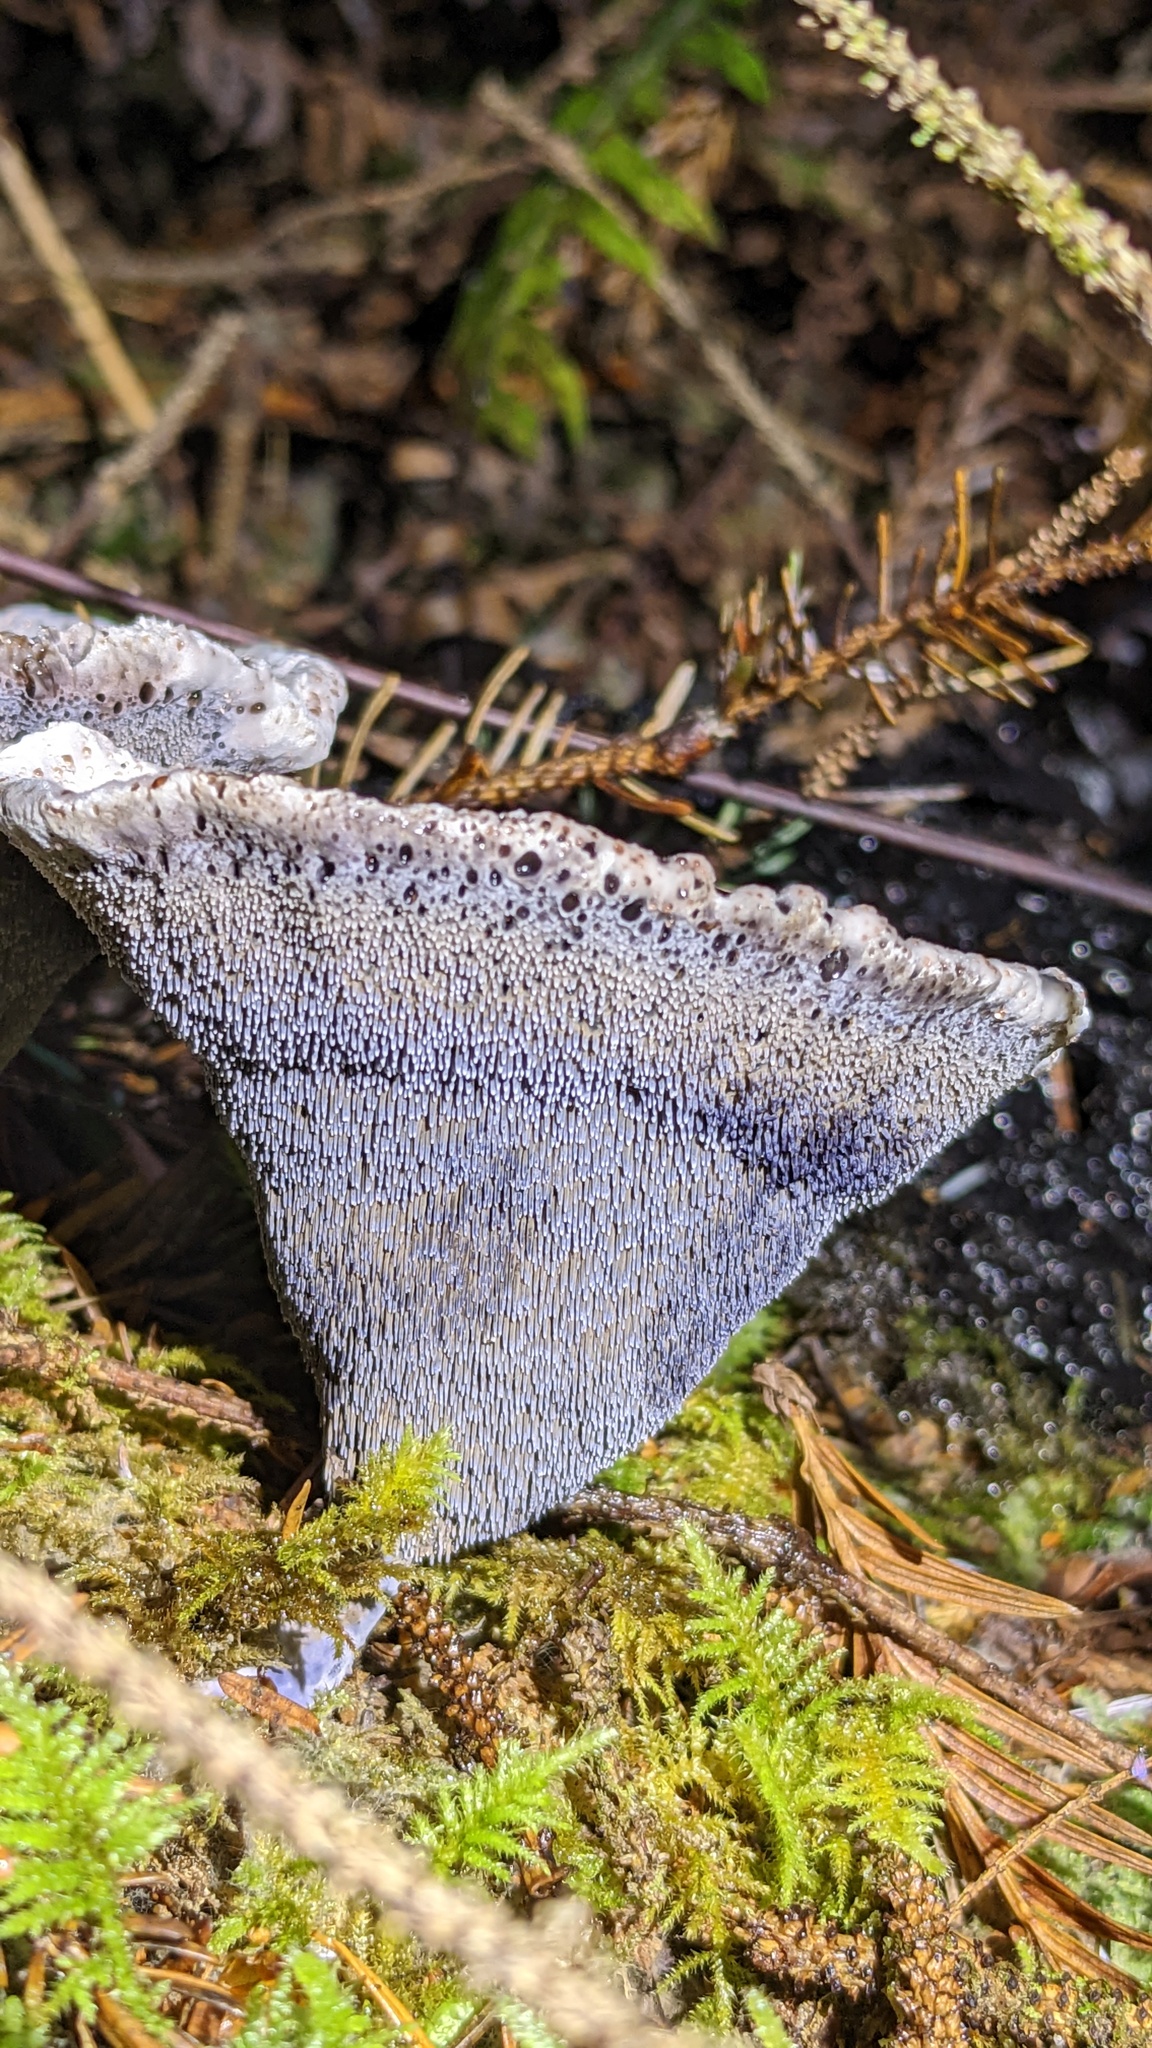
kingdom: Fungi
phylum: Basidiomycota
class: Agaricomycetes
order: Thelephorales
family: Bankeraceae
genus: Hydnellum
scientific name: Hydnellum cyanopodium
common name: Bleeding blue tooth
